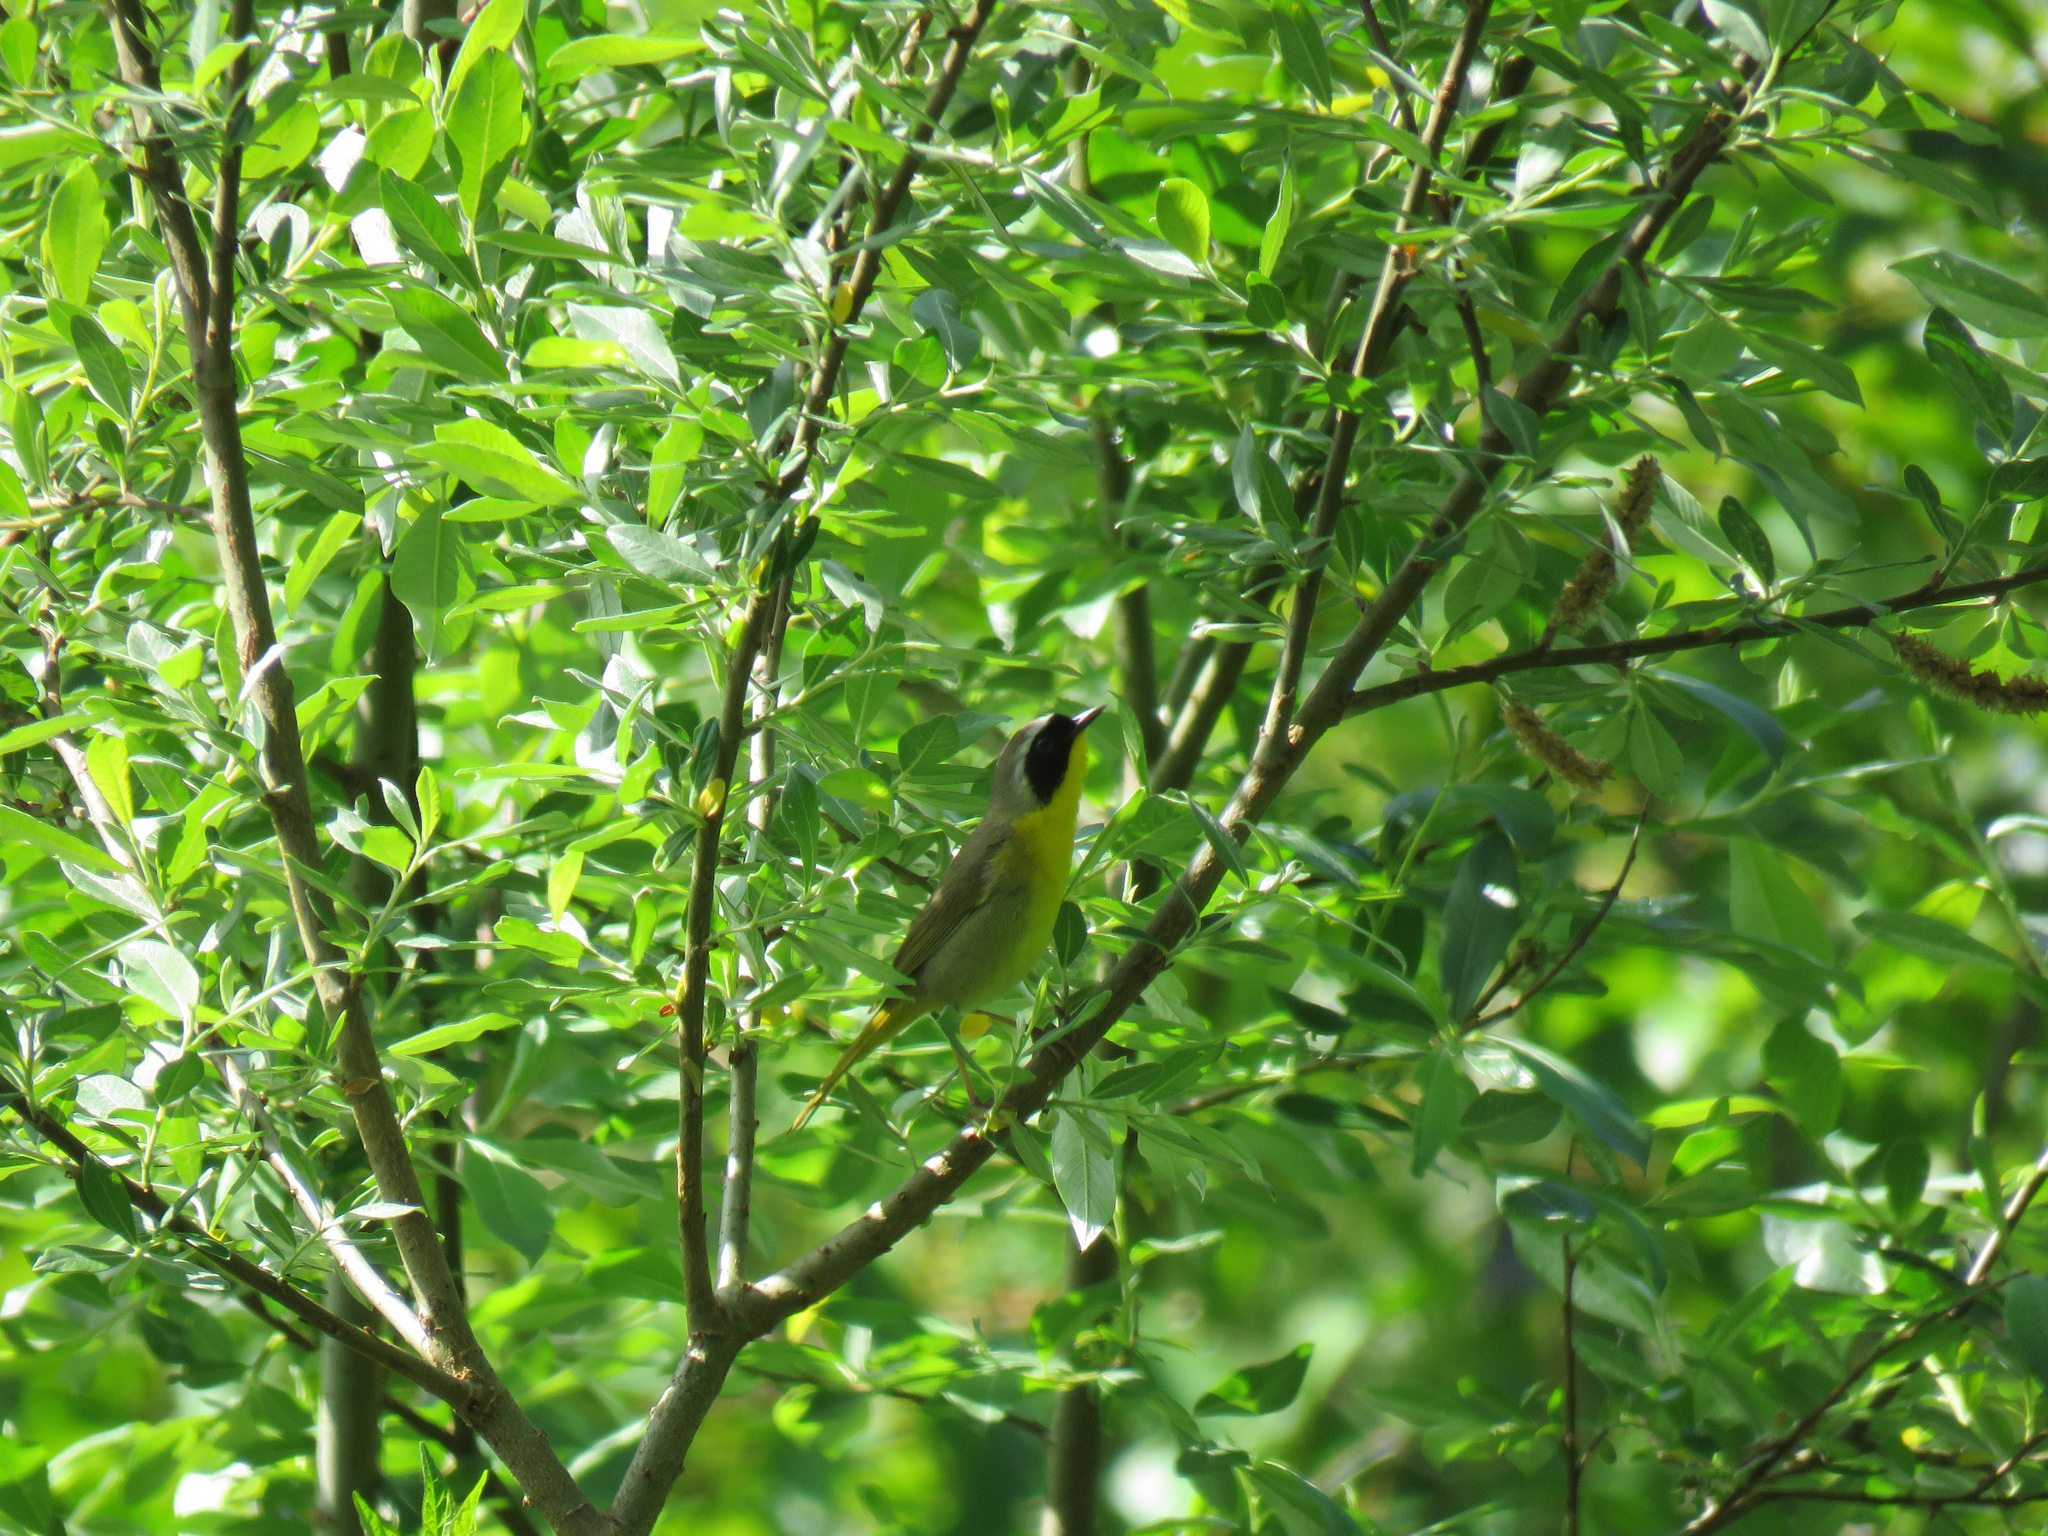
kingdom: Animalia
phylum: Chordata
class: Aves
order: Passeriformes
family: Parulidae
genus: Geothlypis
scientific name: Geothlypis trichas
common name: Common yellowthroat
